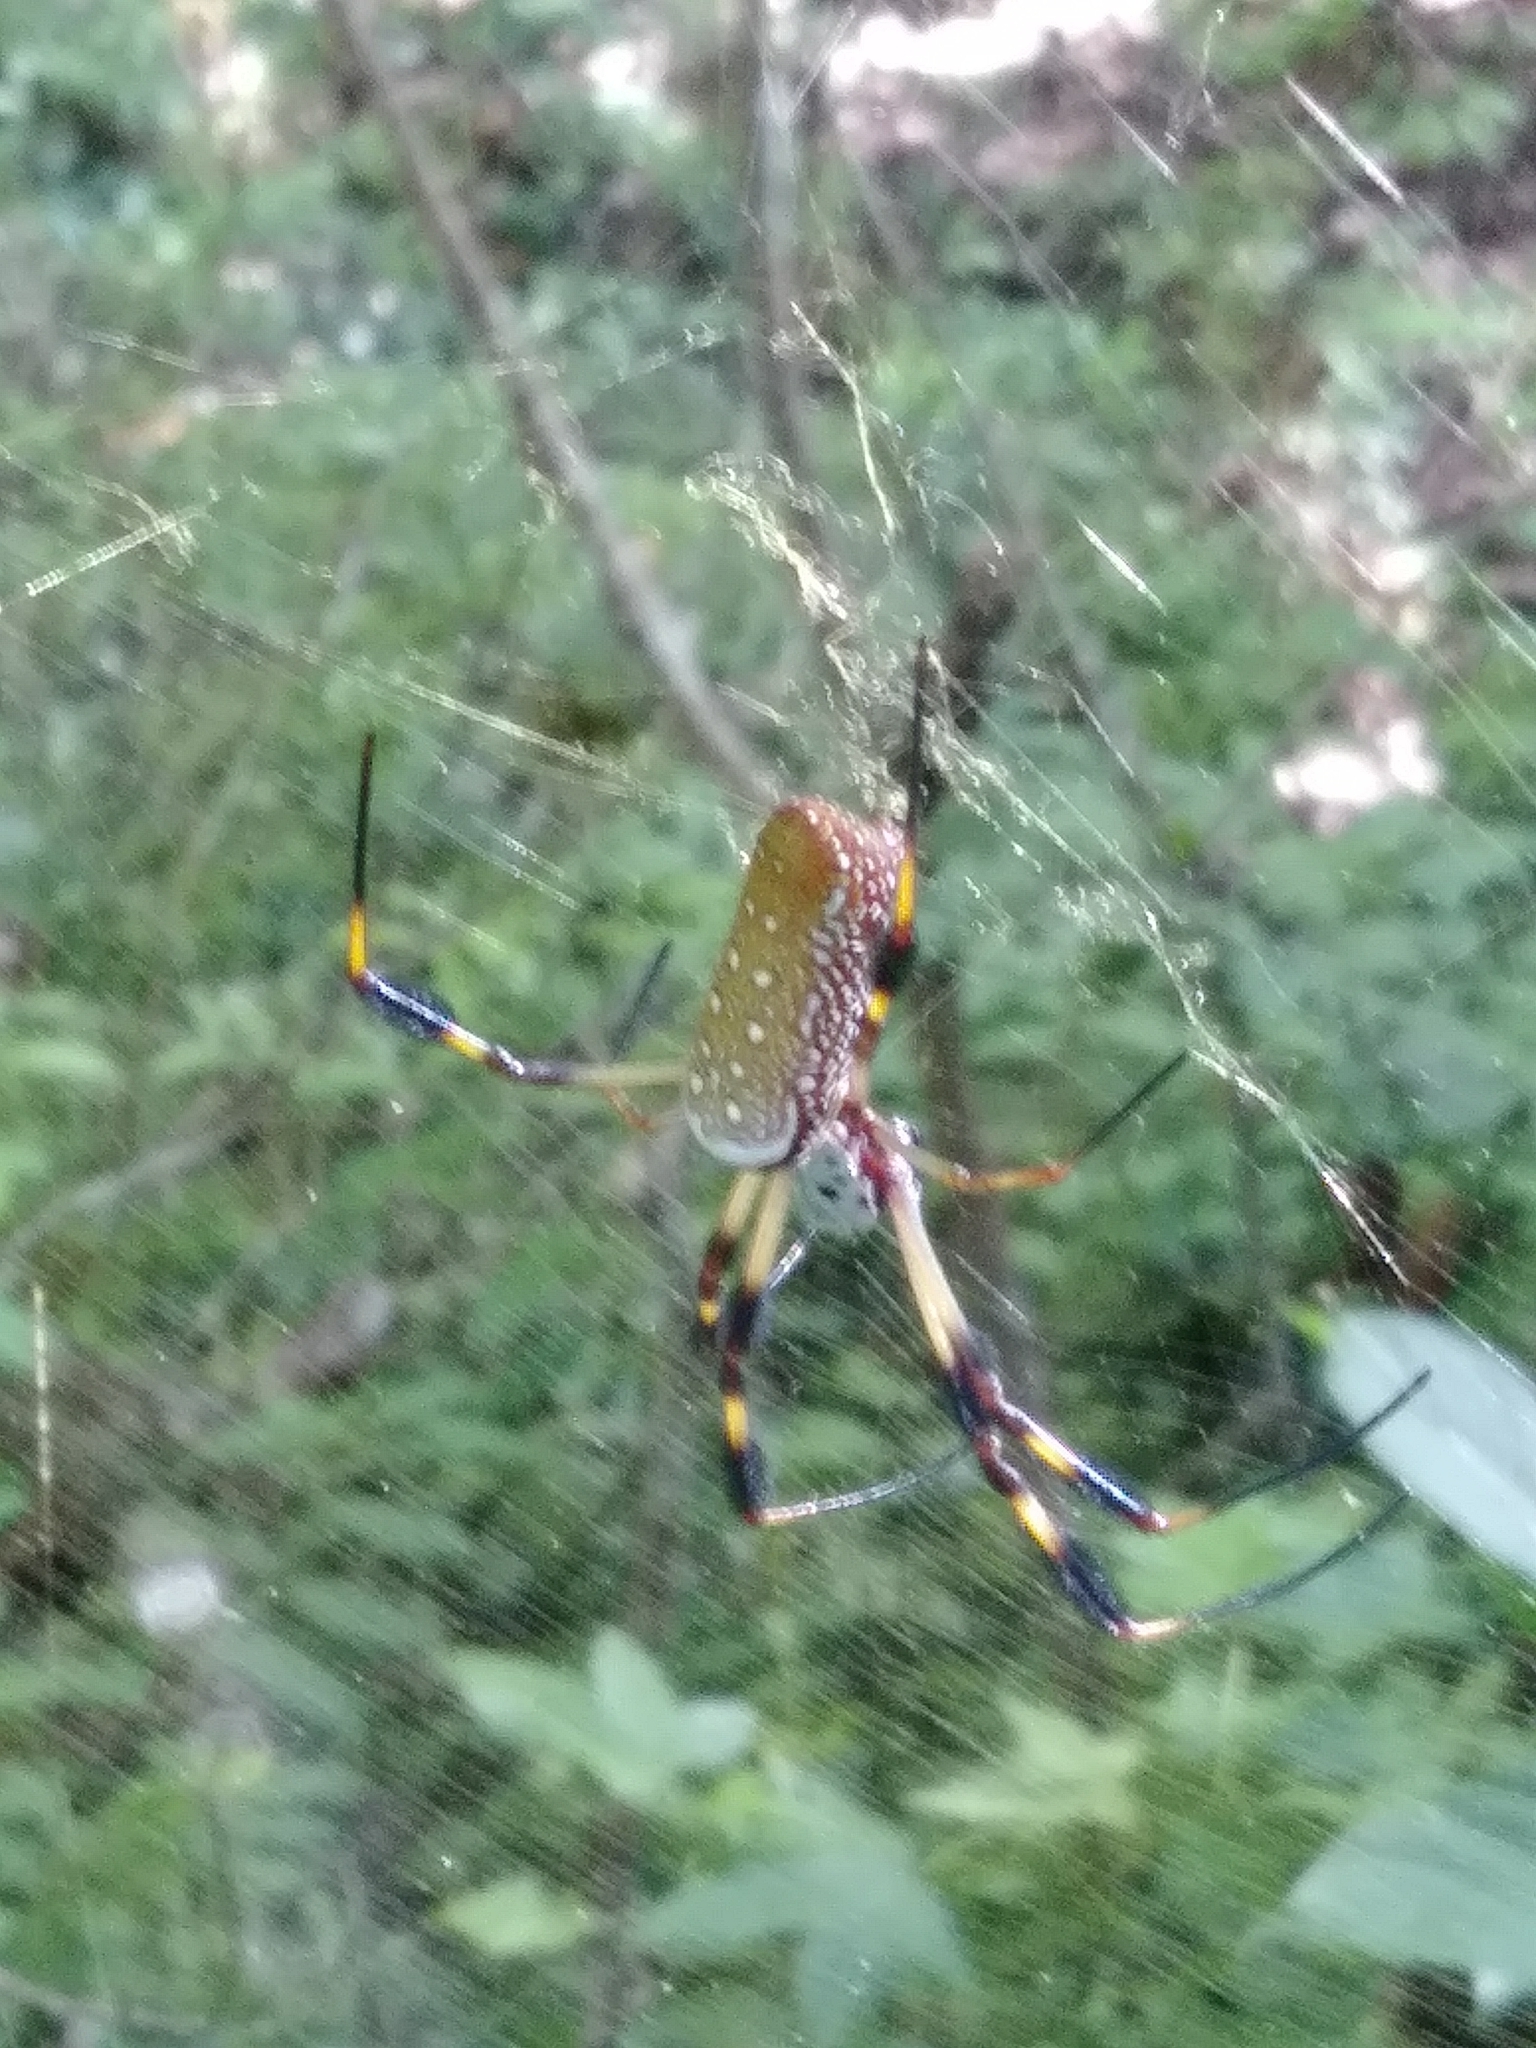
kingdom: Animalia
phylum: Arthropoda
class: Arachnida
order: Araneae
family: Araneidae
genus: Trichonephila
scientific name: Trichonephila clavipes
